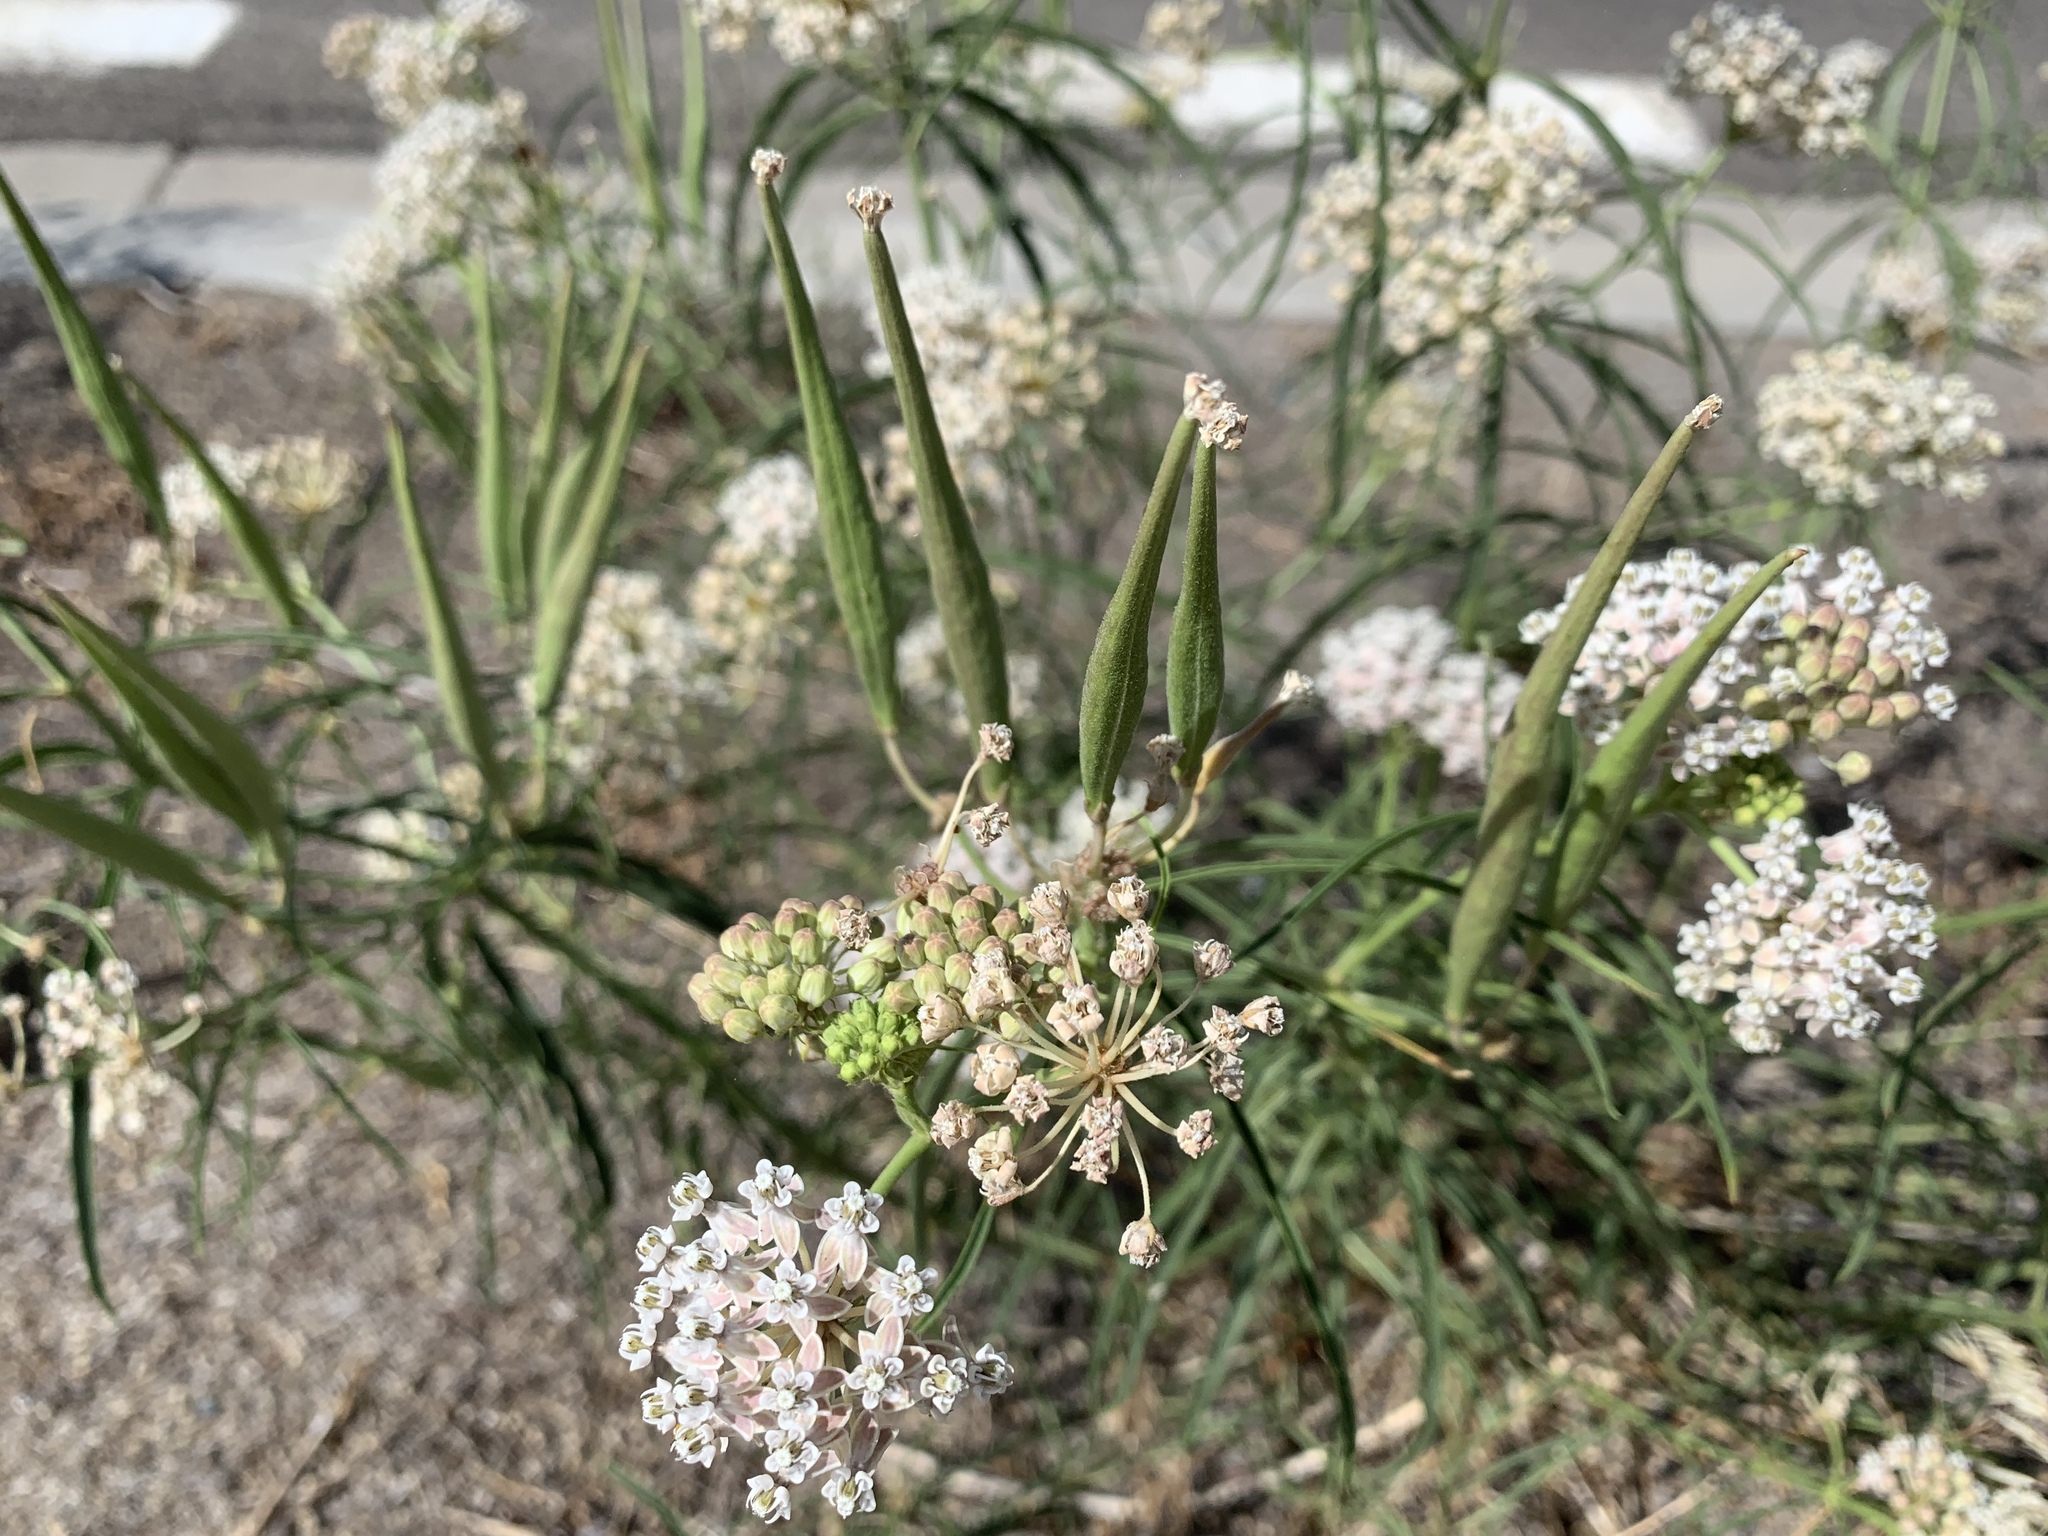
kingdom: Plantae
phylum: Tracheophyta
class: Magnoliopsida
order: Gentianales
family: Apocynaceae
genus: Asclepias
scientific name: Asclepias fascicularis
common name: Mexican milkweed
